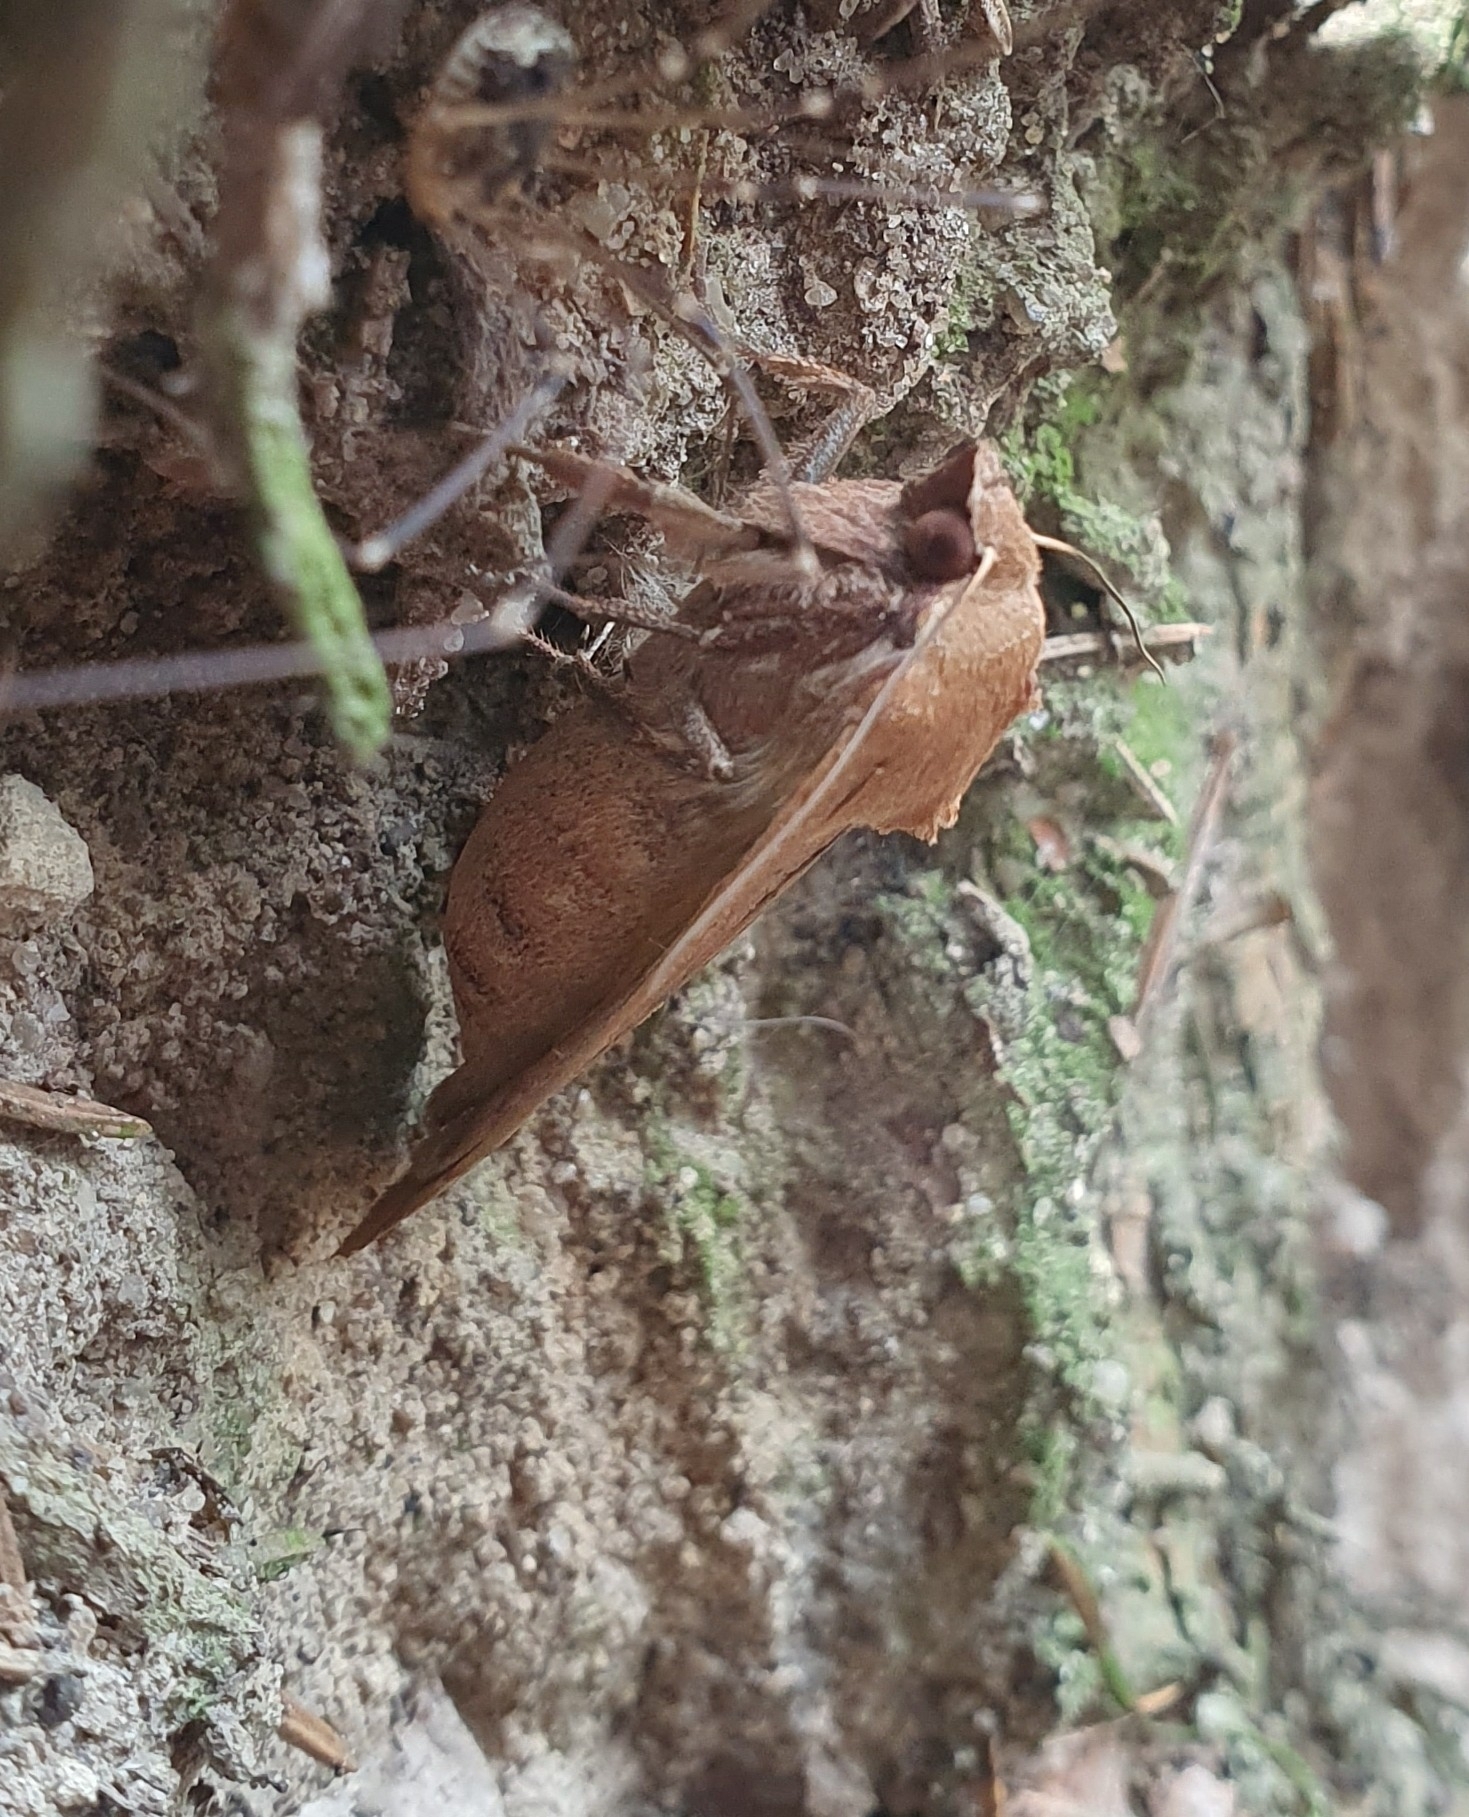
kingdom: Animalia
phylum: Arthropoda
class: Insecta
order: Lepidoptera
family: Noctuidae
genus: Noctua
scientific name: Noctua pronuba
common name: Large yellow underwing
